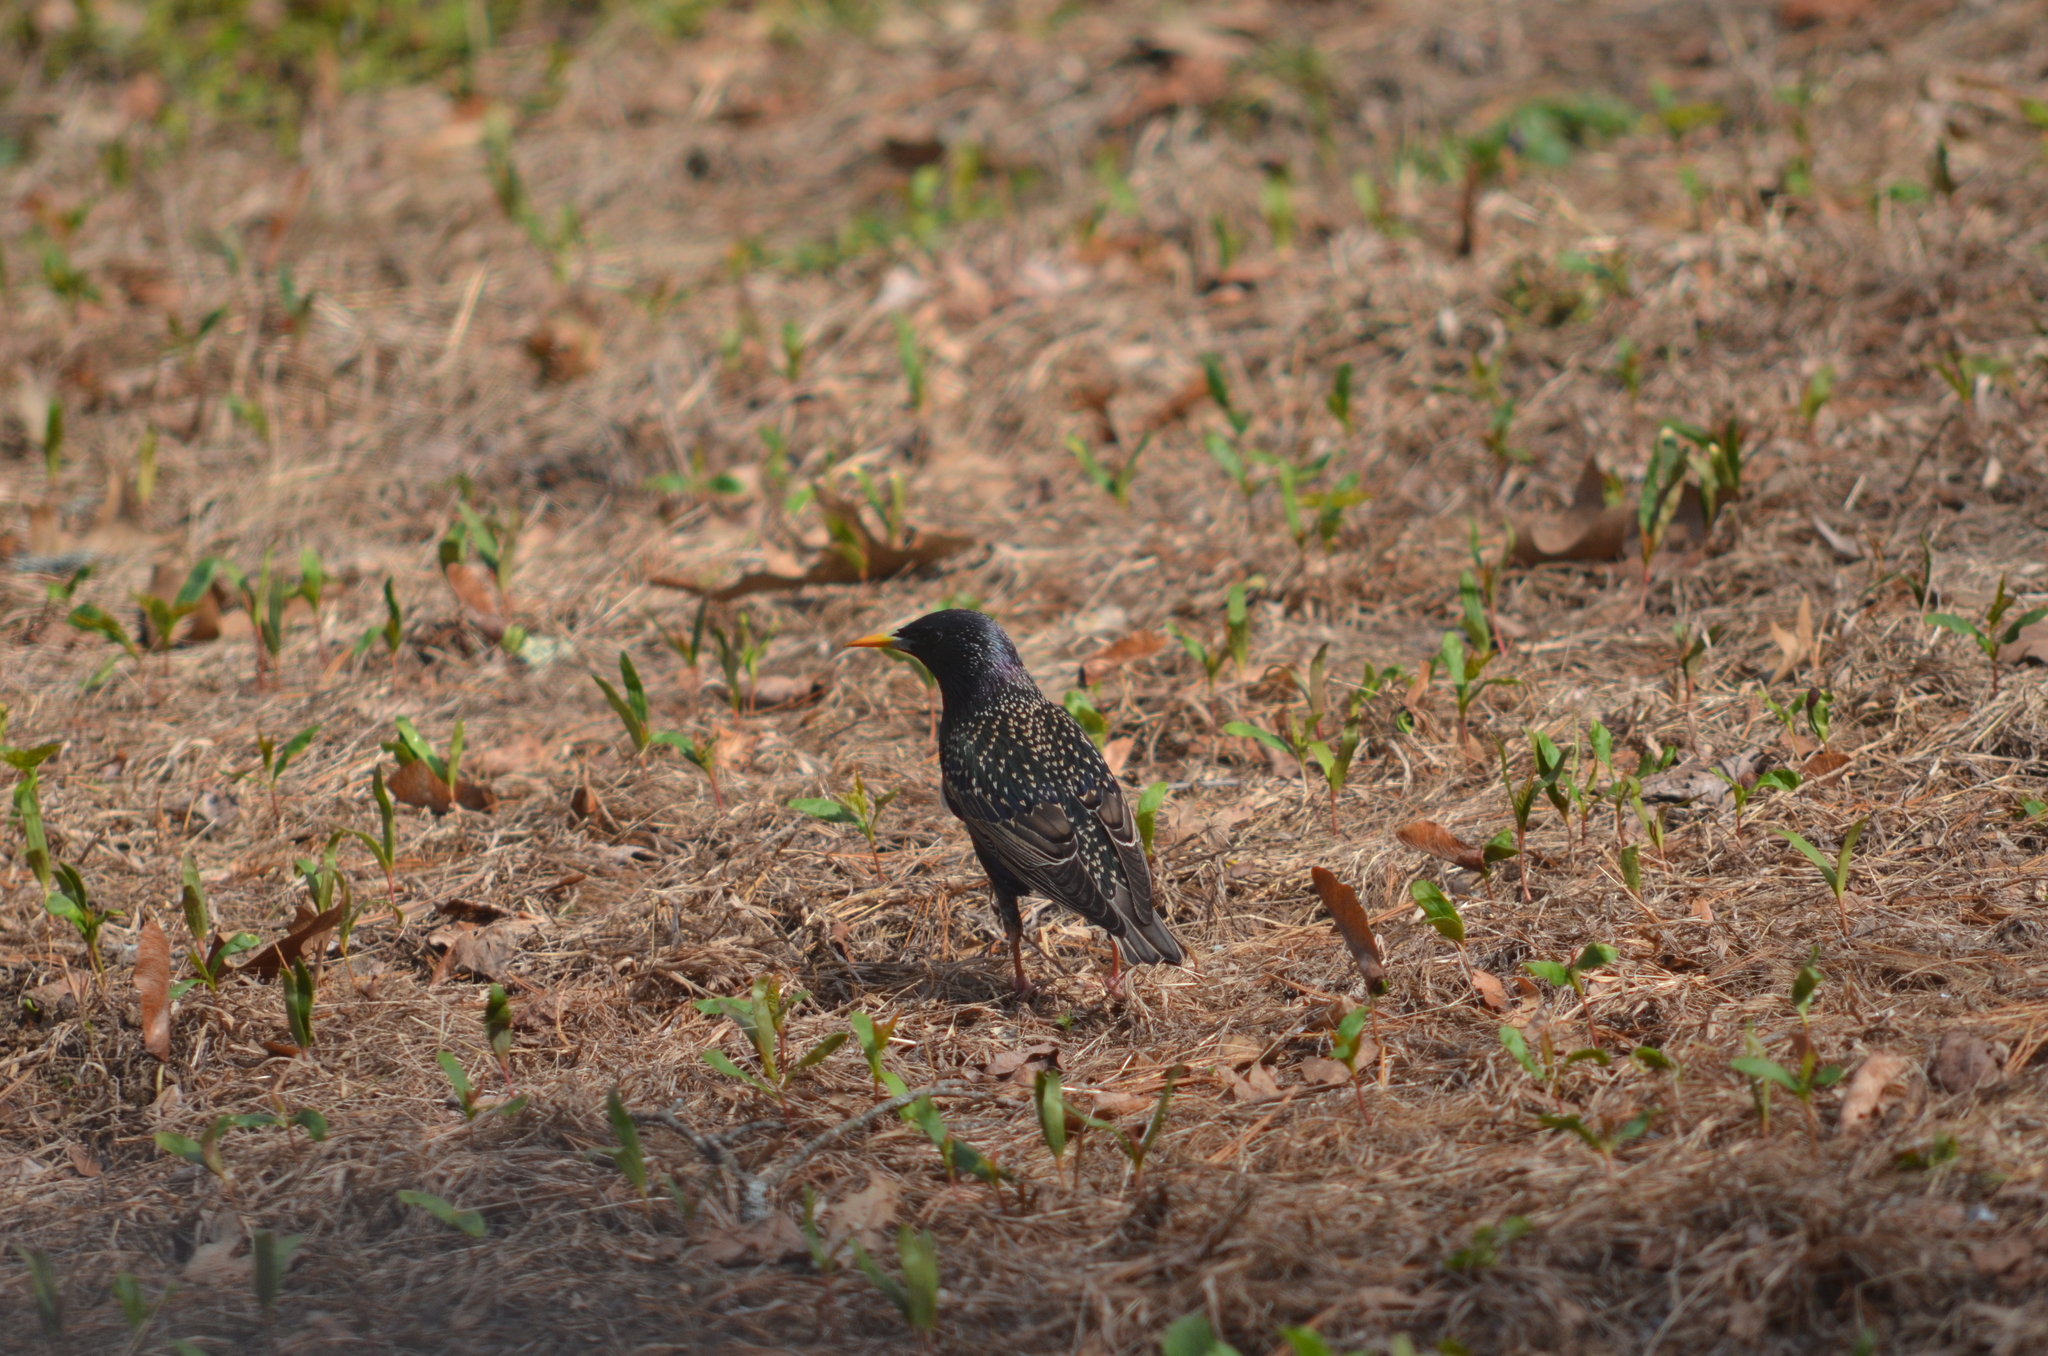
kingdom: Animalia
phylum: Chordata
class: Aves
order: Passeriformes
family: Sturnidae
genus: Sturnus
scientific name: Sturnus vulgaris
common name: Common starling
